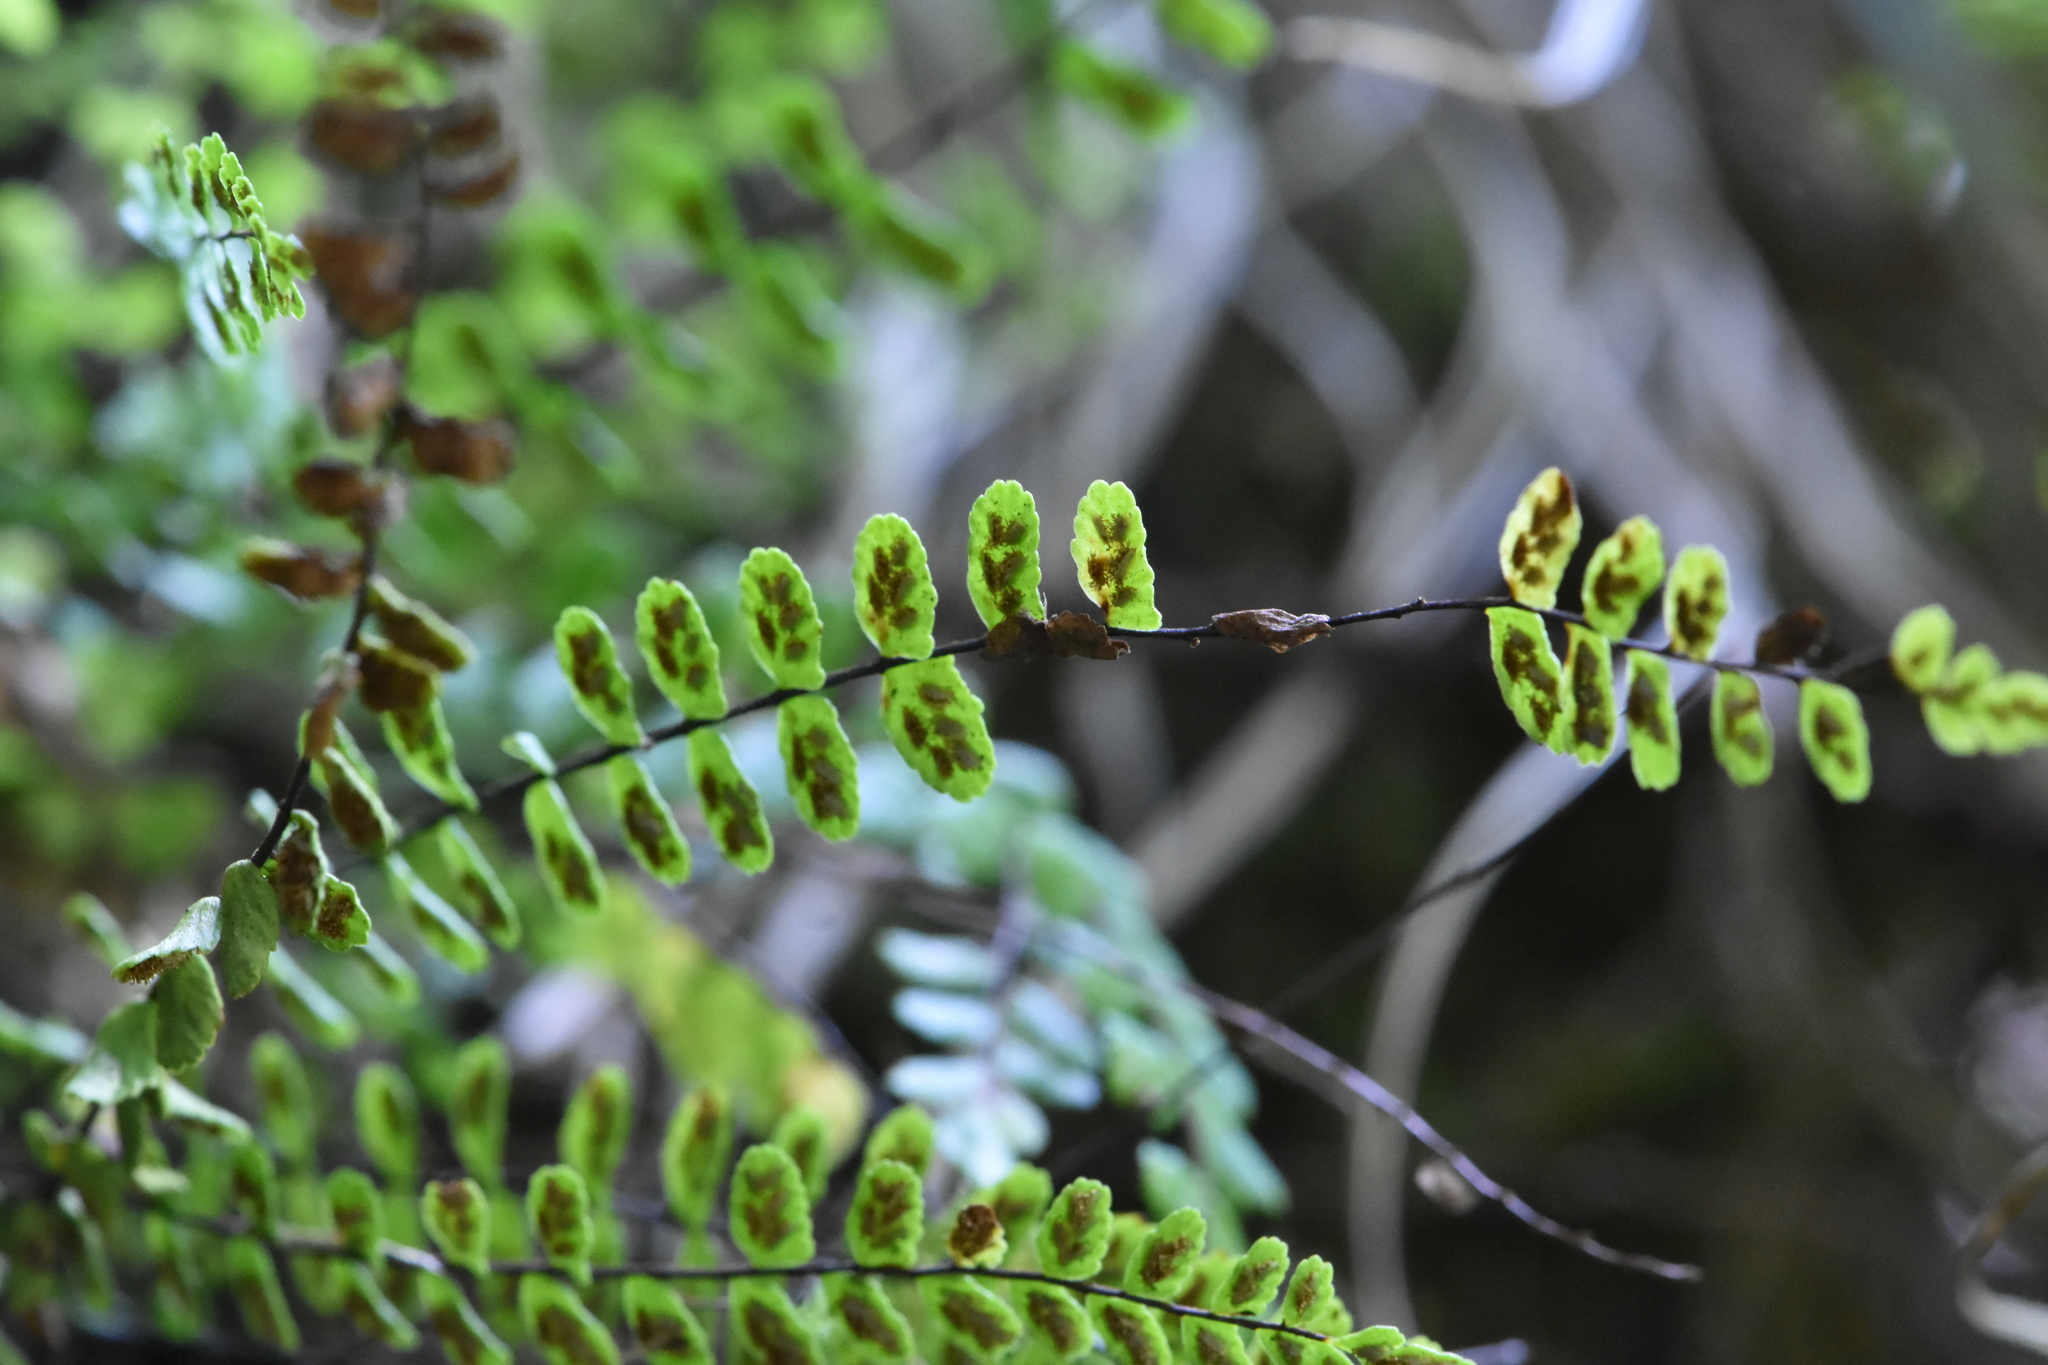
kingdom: Plantae
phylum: Tracheophyta
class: Polypodiopsida
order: Polypodiales
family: Aspleniaceae
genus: Asplenium
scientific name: Asplenium trichomanes
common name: Maidenhair spleenwort
